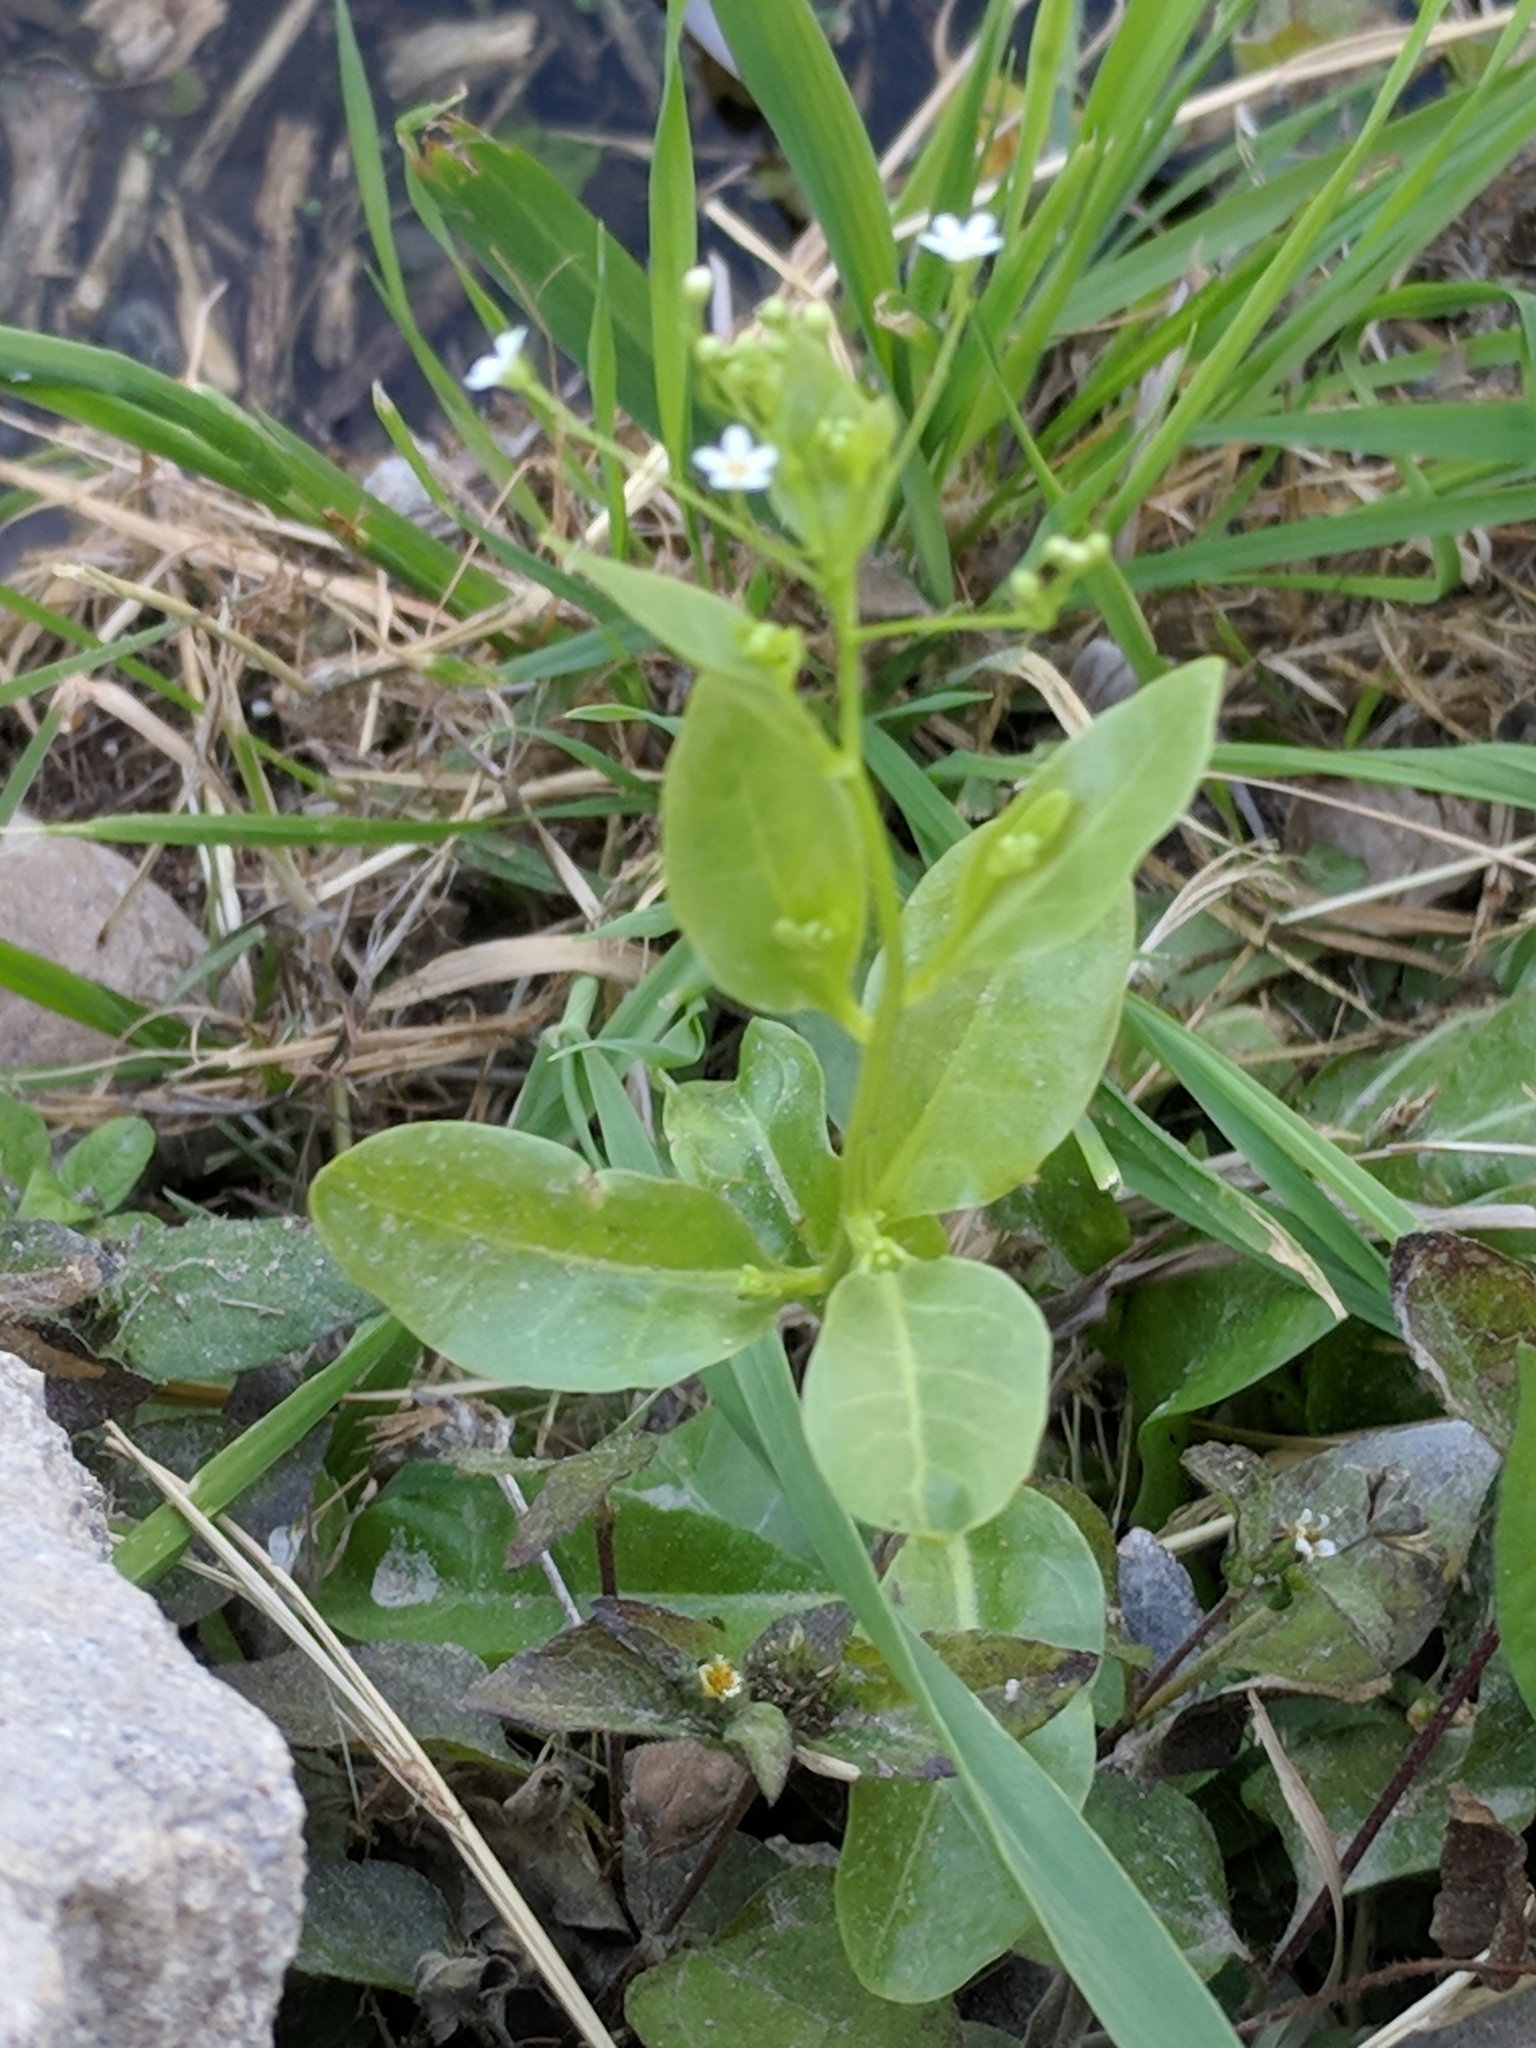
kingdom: Plantae
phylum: Tracheophyta
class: Magnoliopsida
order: Ericales
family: Primulaceae
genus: Samolus
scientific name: Samolus parviflorus
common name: False water pimpernel
